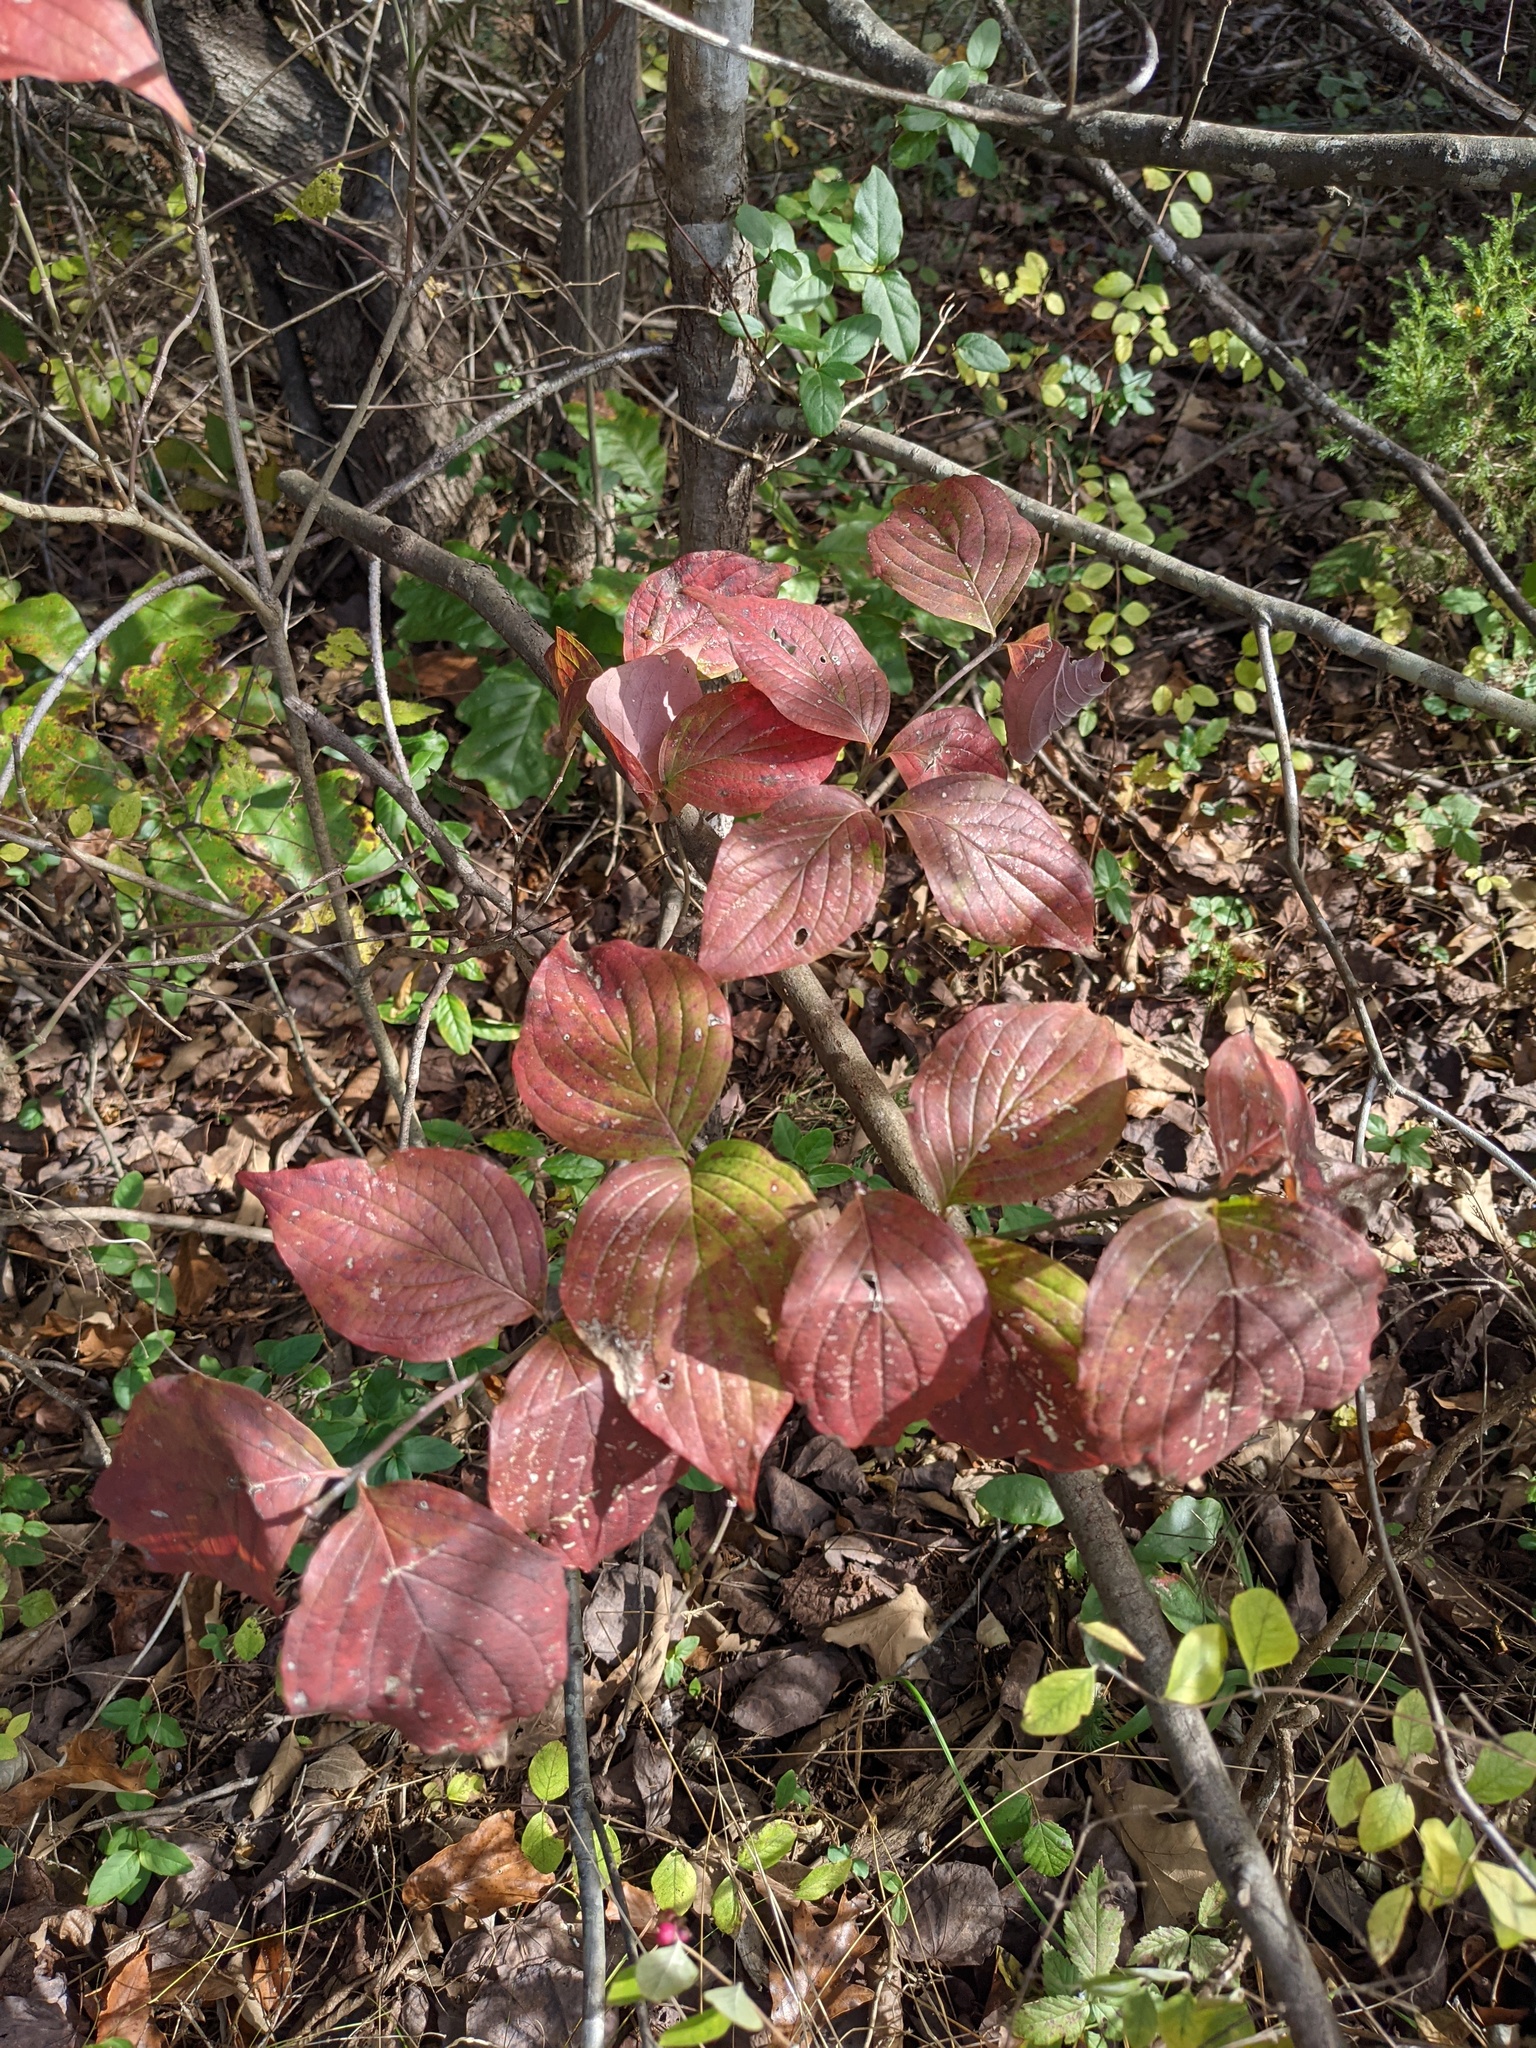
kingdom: Plantae
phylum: Tracheophyta
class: Magnoliopsida
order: Cornales
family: Cornaceae
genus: Cornus
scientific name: Cornus florida
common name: Flowering dogwood
